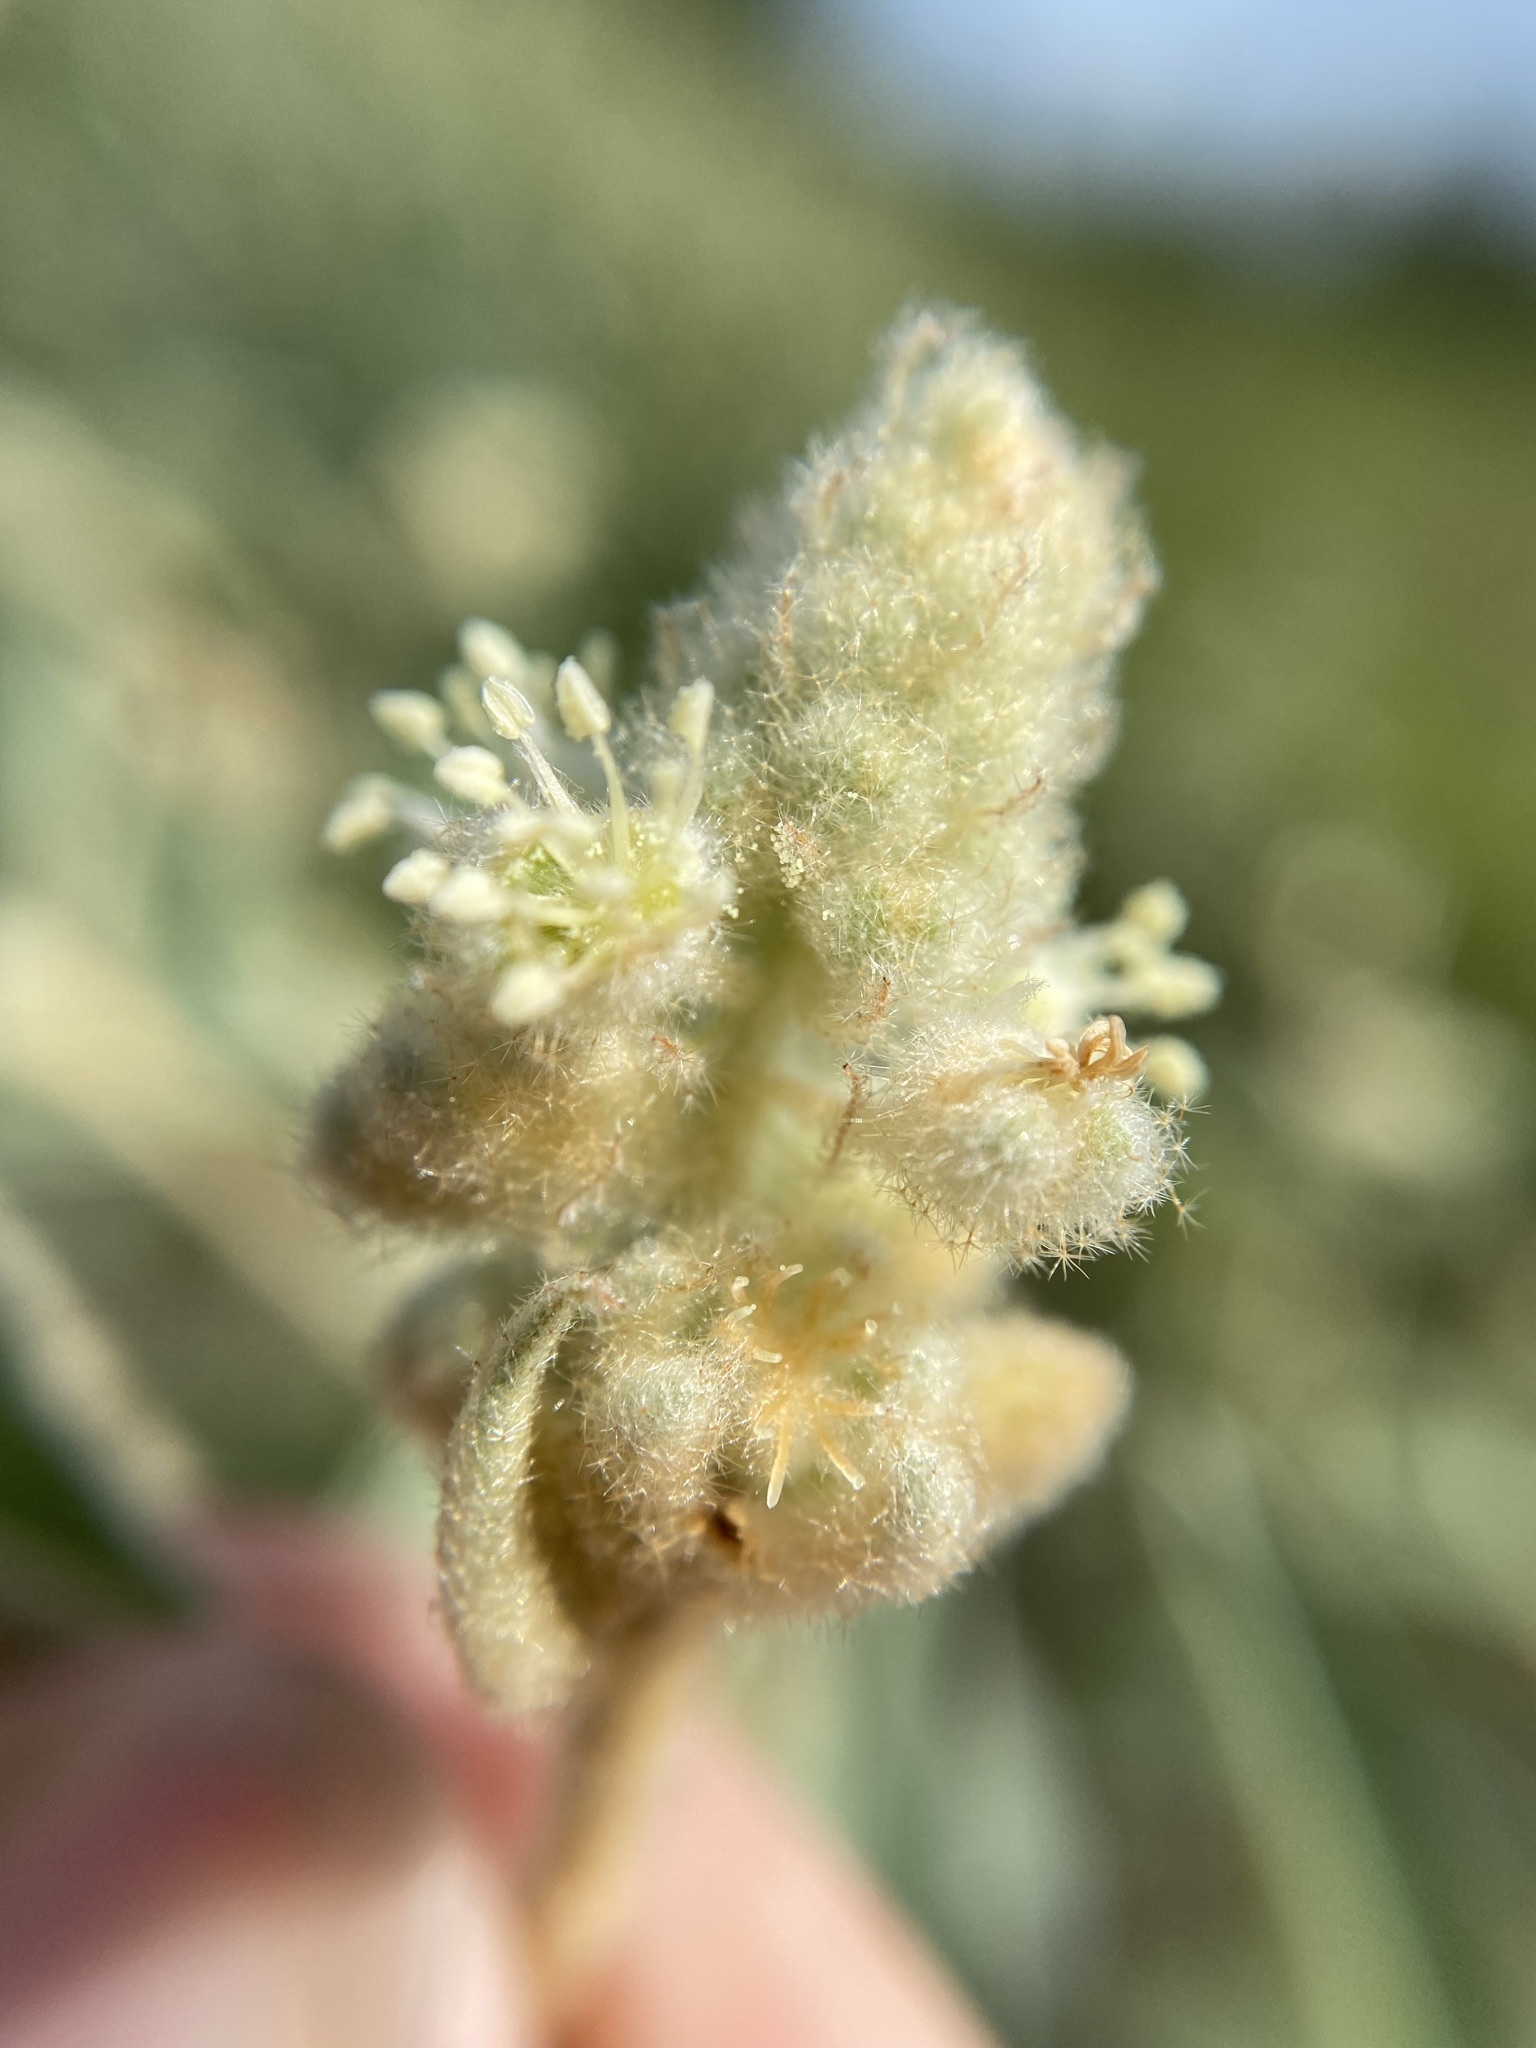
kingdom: Plantae
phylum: Tracheophyta
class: Magnoliopsida
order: Malpighiales
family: Euphorbiaceae
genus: Croton
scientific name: Croton lindheimeri
